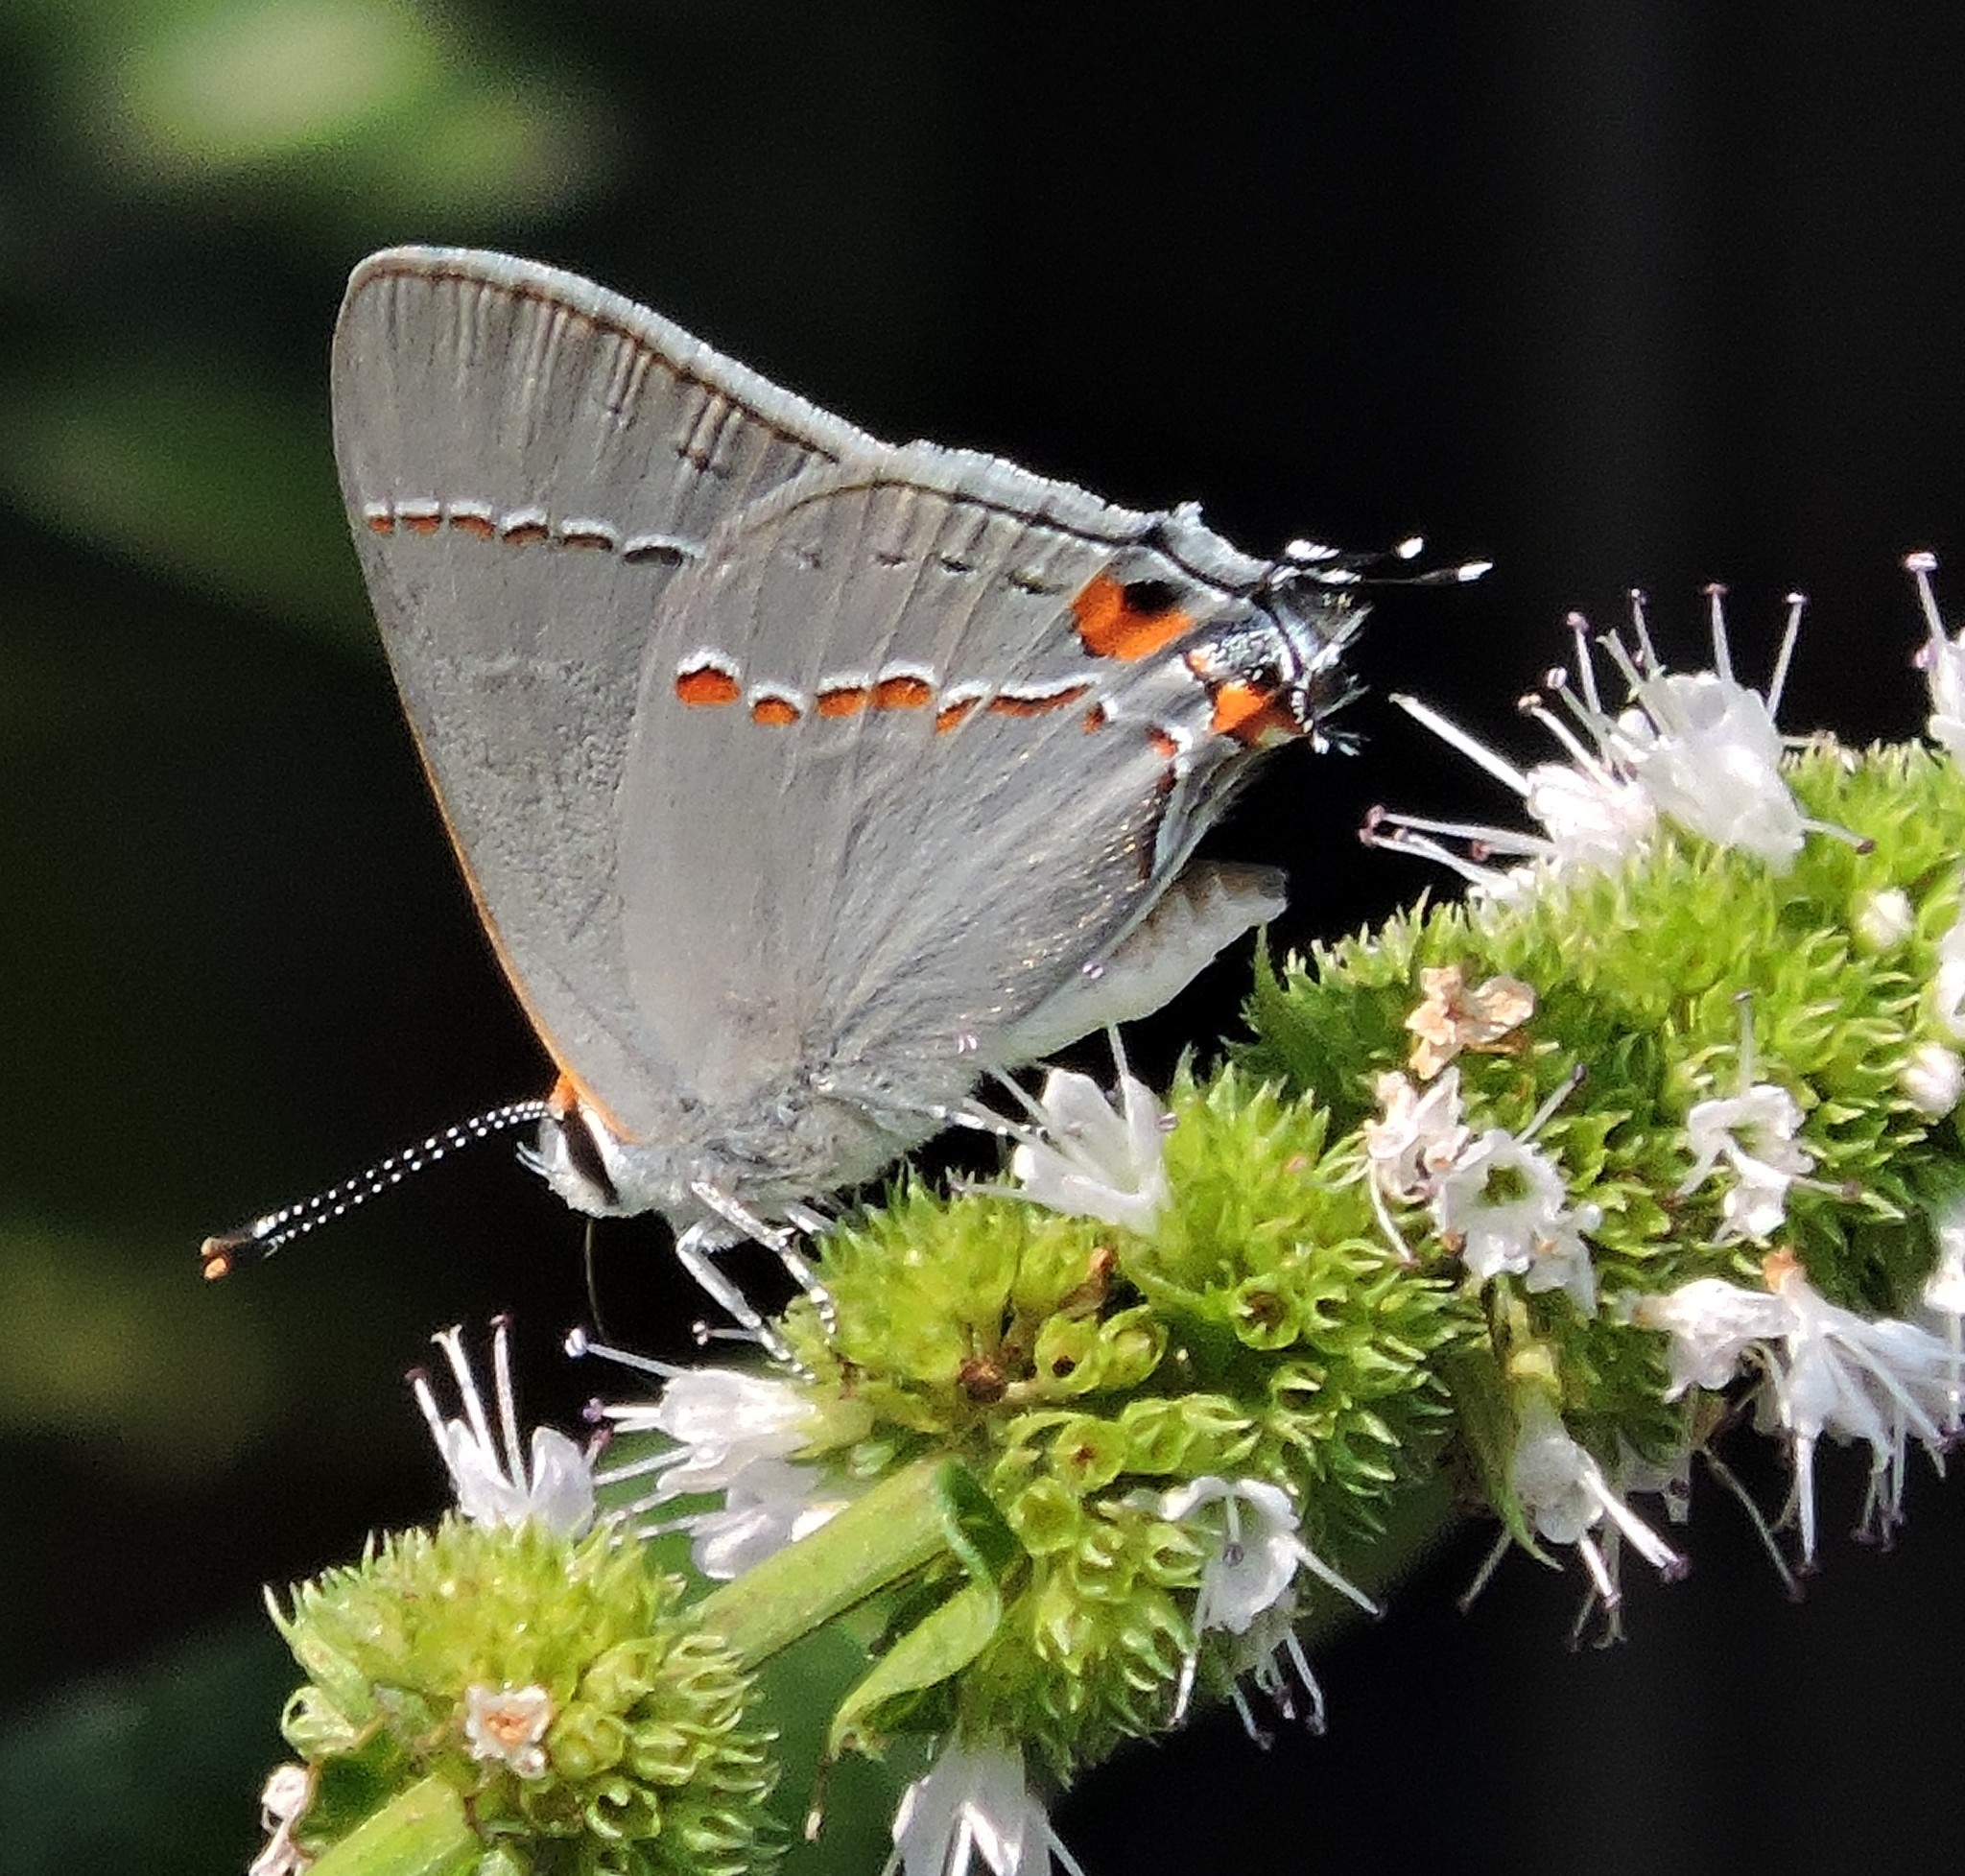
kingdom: Animalia
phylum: Arthropoda
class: Insecta
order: Lepidoptera
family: Lycaenidae
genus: Strymon
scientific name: Strymon melinus
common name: Gray hairstreak
